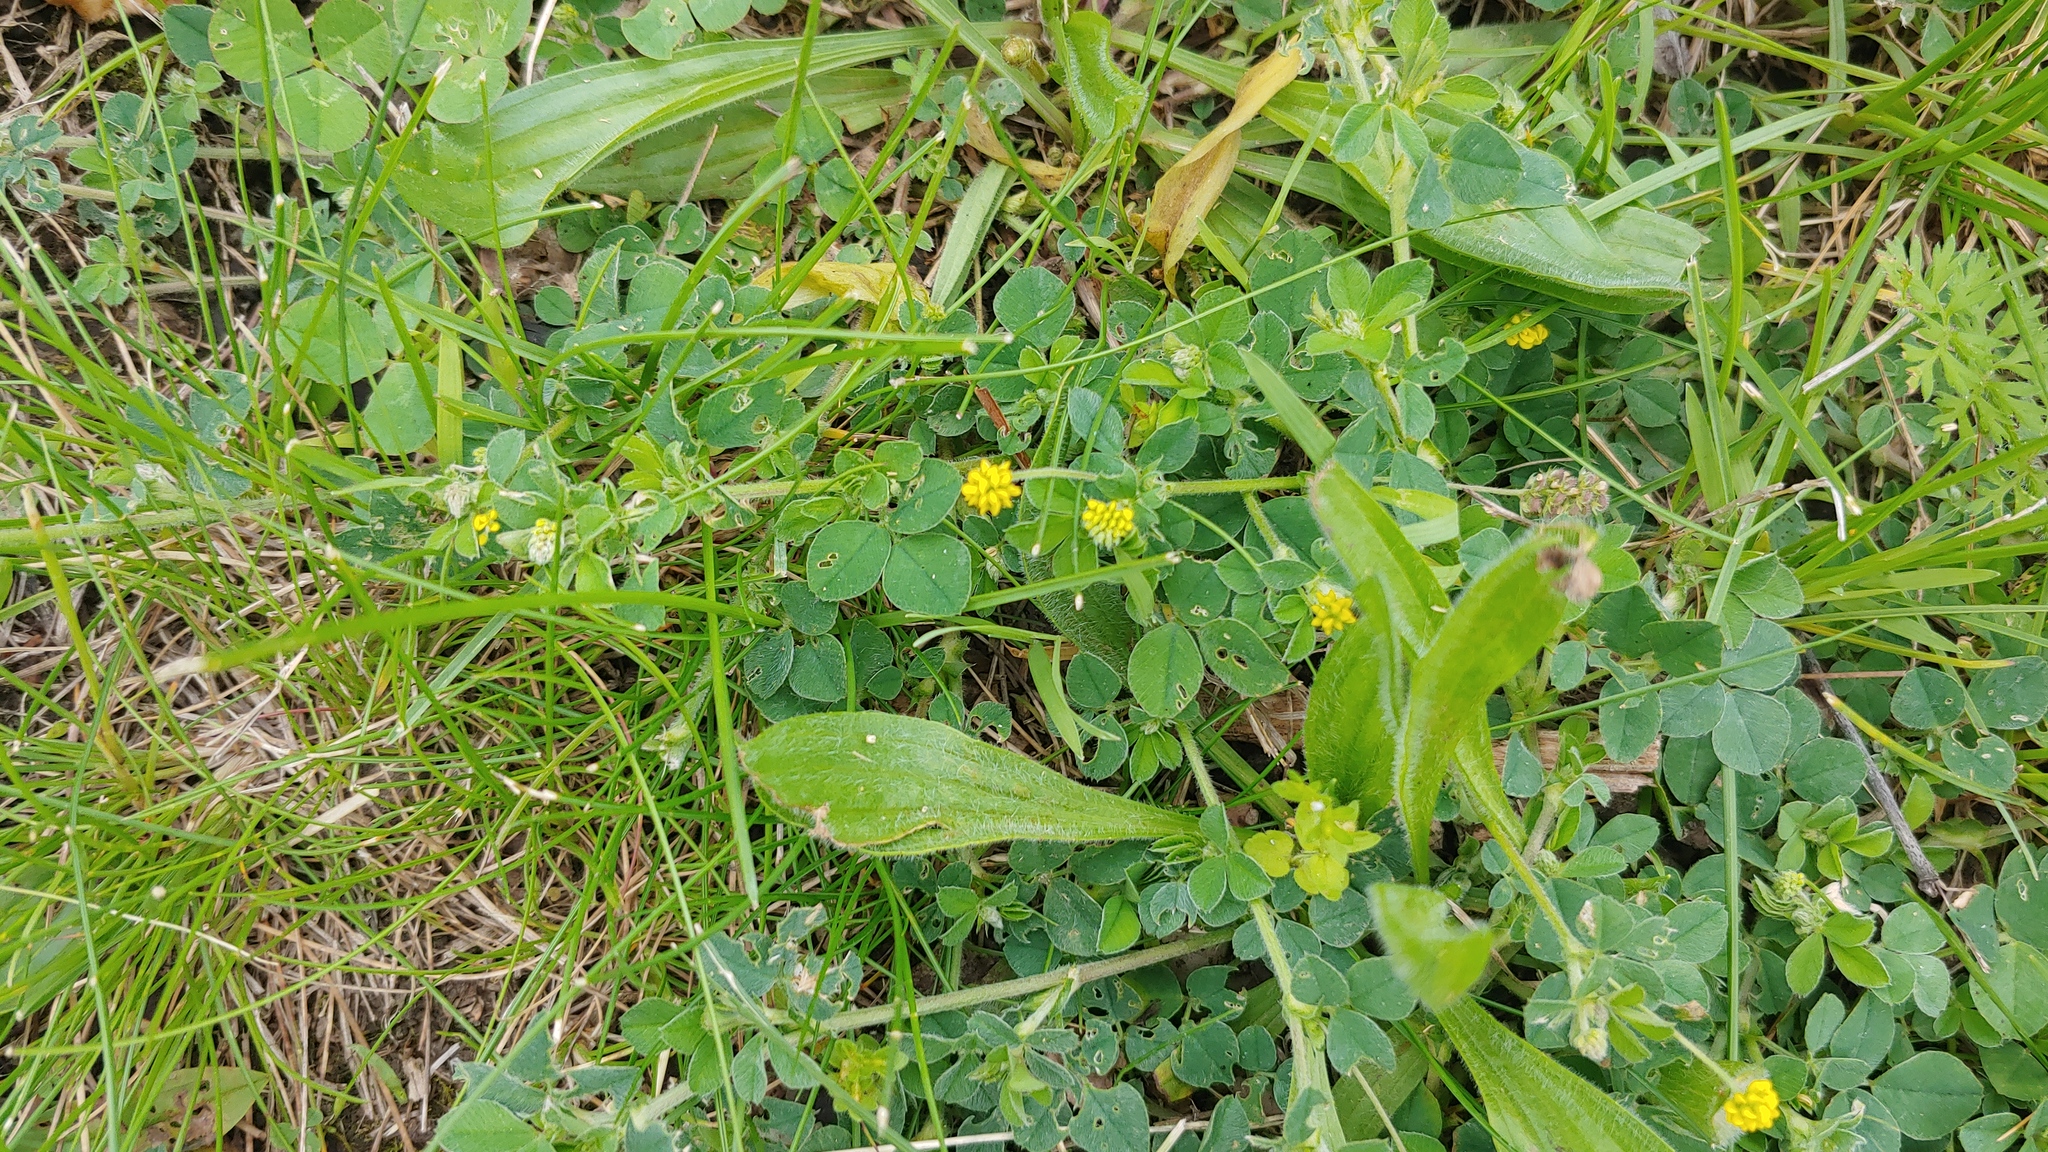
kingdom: Plantae
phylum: Tracheophyta
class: Magnoliopsida
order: Fabales
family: Fabaceae
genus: Medicago
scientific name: Medicago lupulina
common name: Black medick
